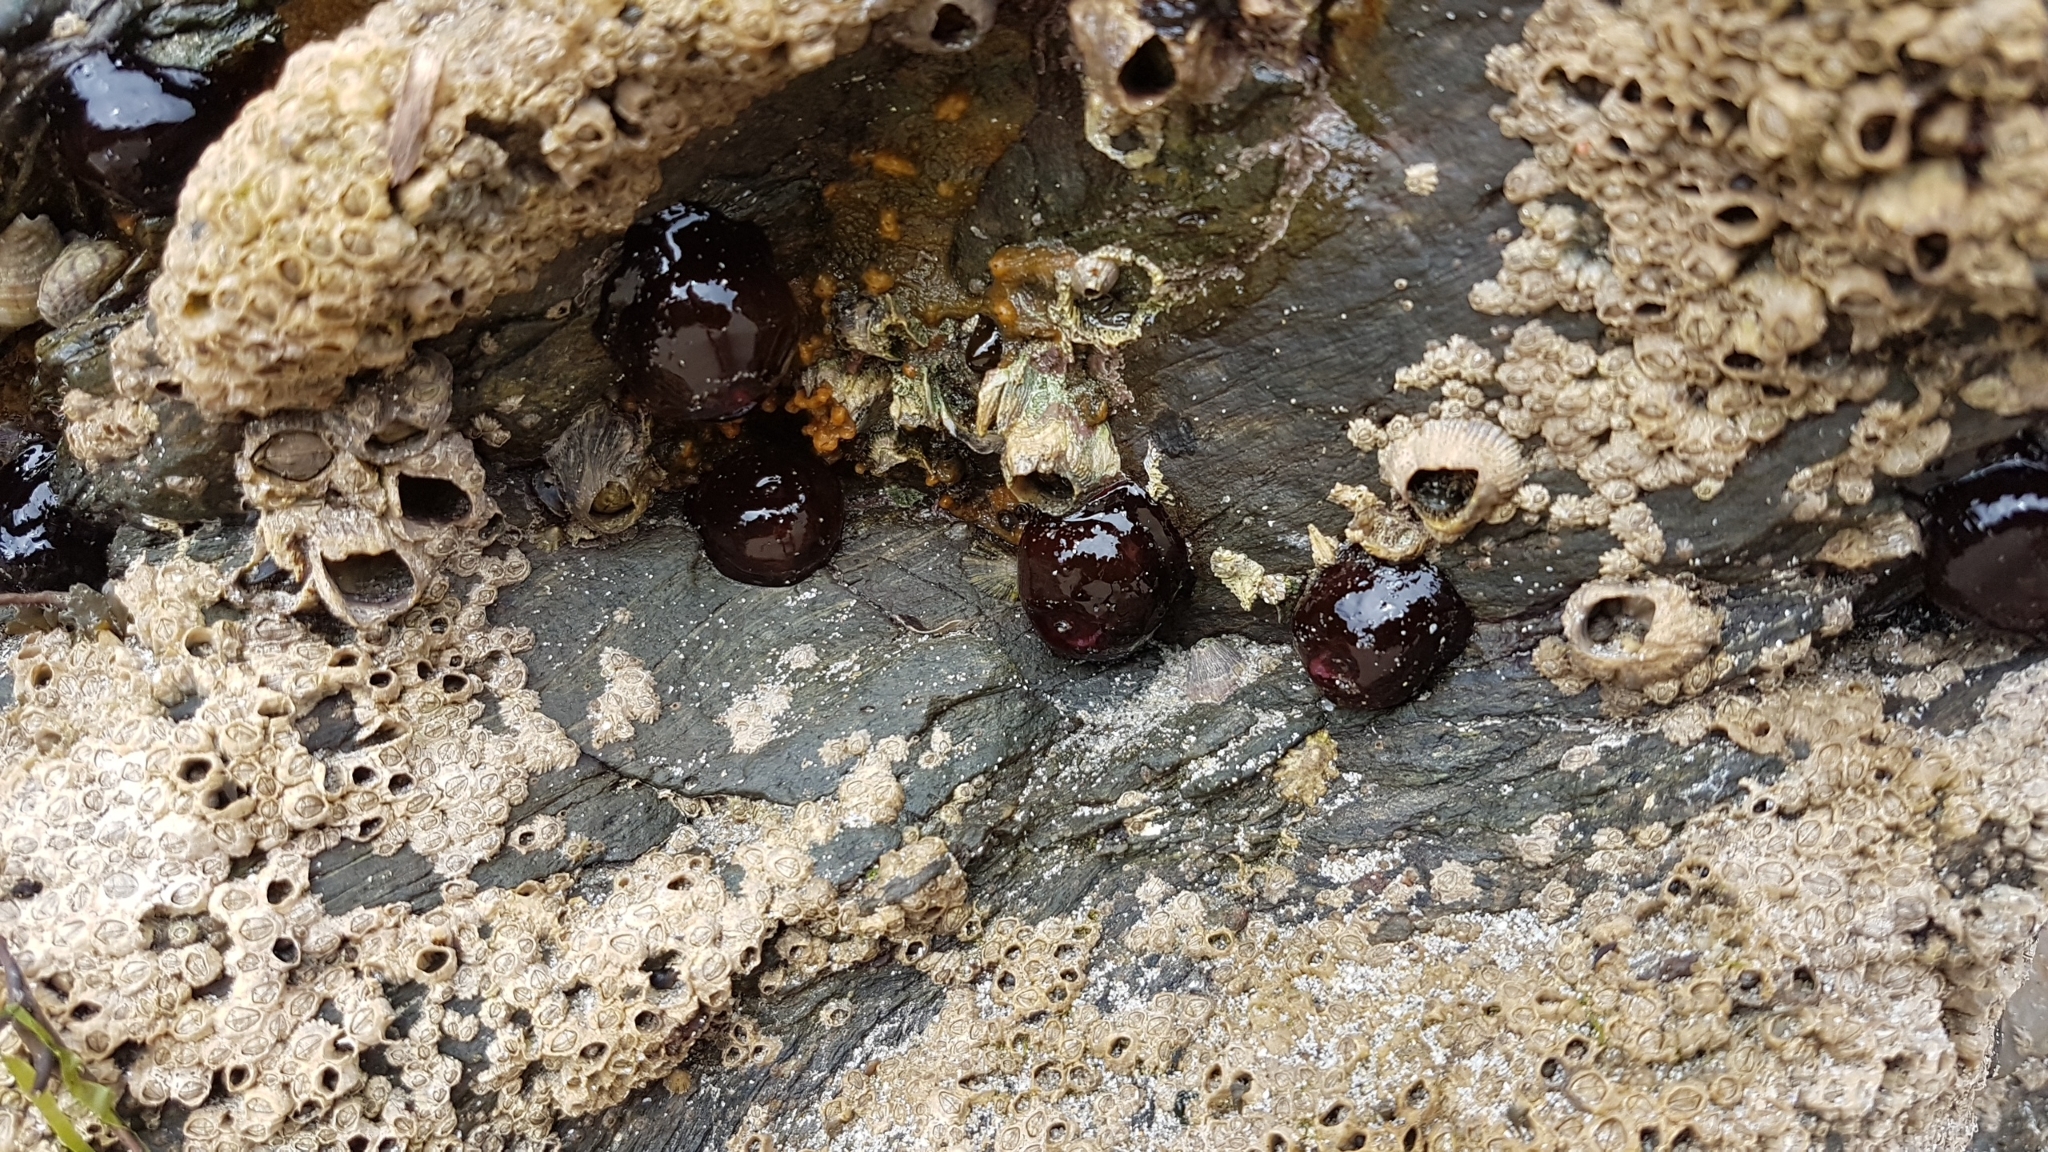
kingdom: Animalia
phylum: Cnidaria
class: Anthozoa
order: Actiniaria
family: Actiniidae
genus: Actinia
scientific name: Actinia equina
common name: Beadlet anemone
